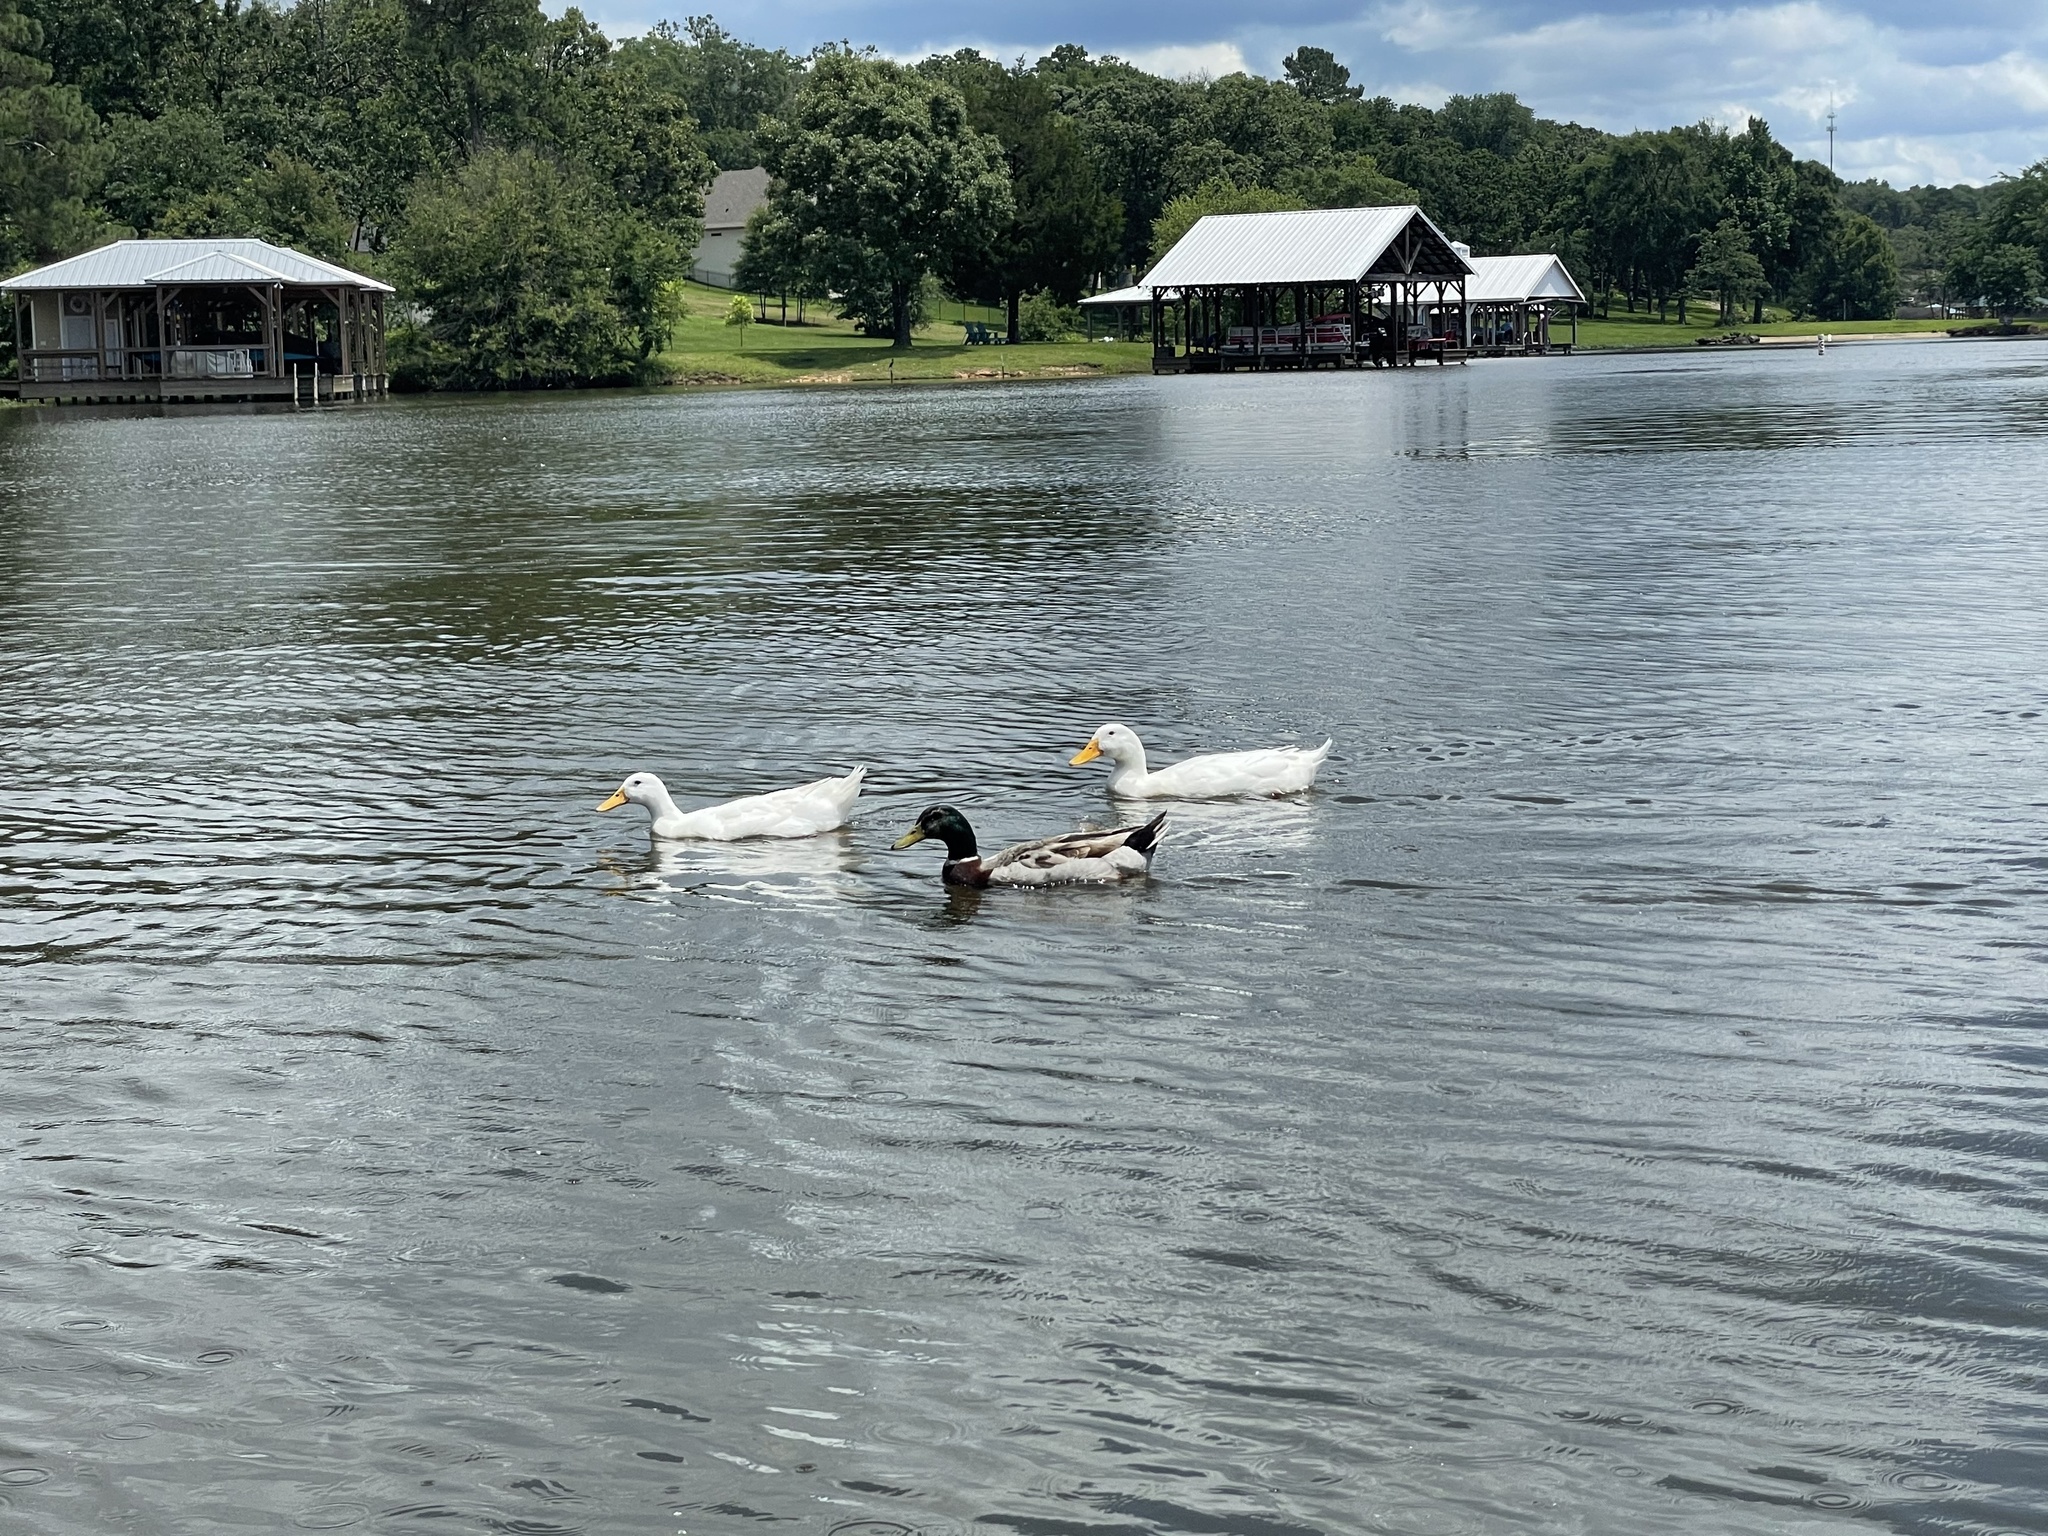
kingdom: Animalia
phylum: Chordata
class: Aves
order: Anseriformes
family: Anatidae
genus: Anas
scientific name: Anas platyrhynchos
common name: Mallard
